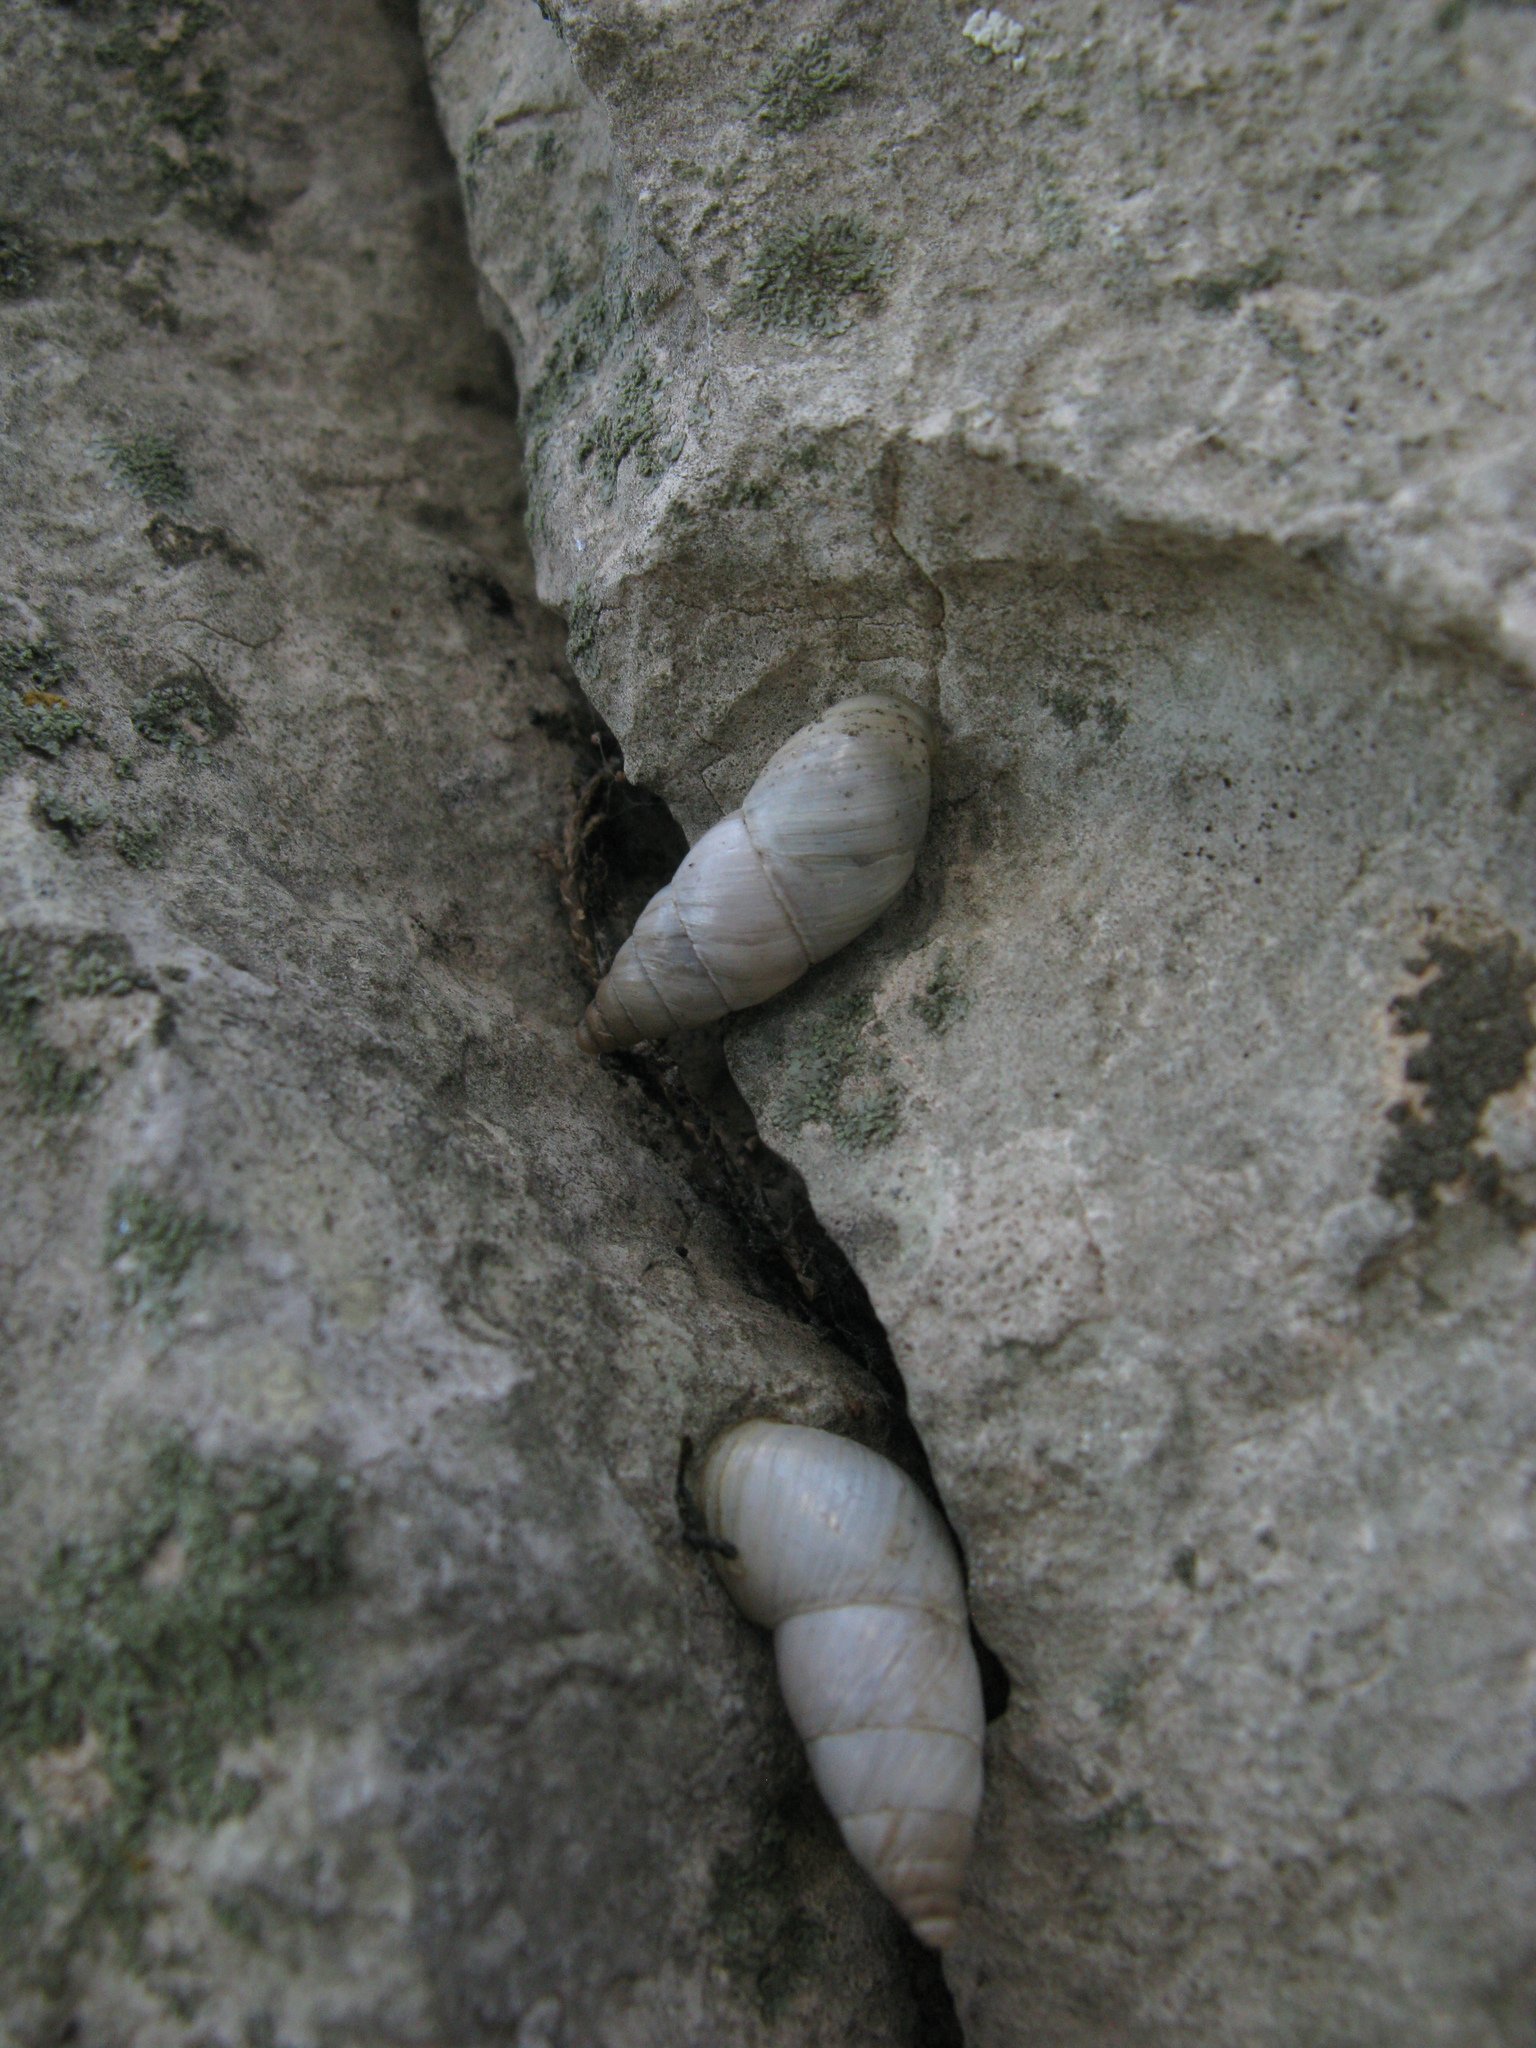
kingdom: Animalia
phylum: Mollusca
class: Gastropoda
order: Stylommatophora
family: Enidae
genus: Thoanteus
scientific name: Thoanteus gibber
